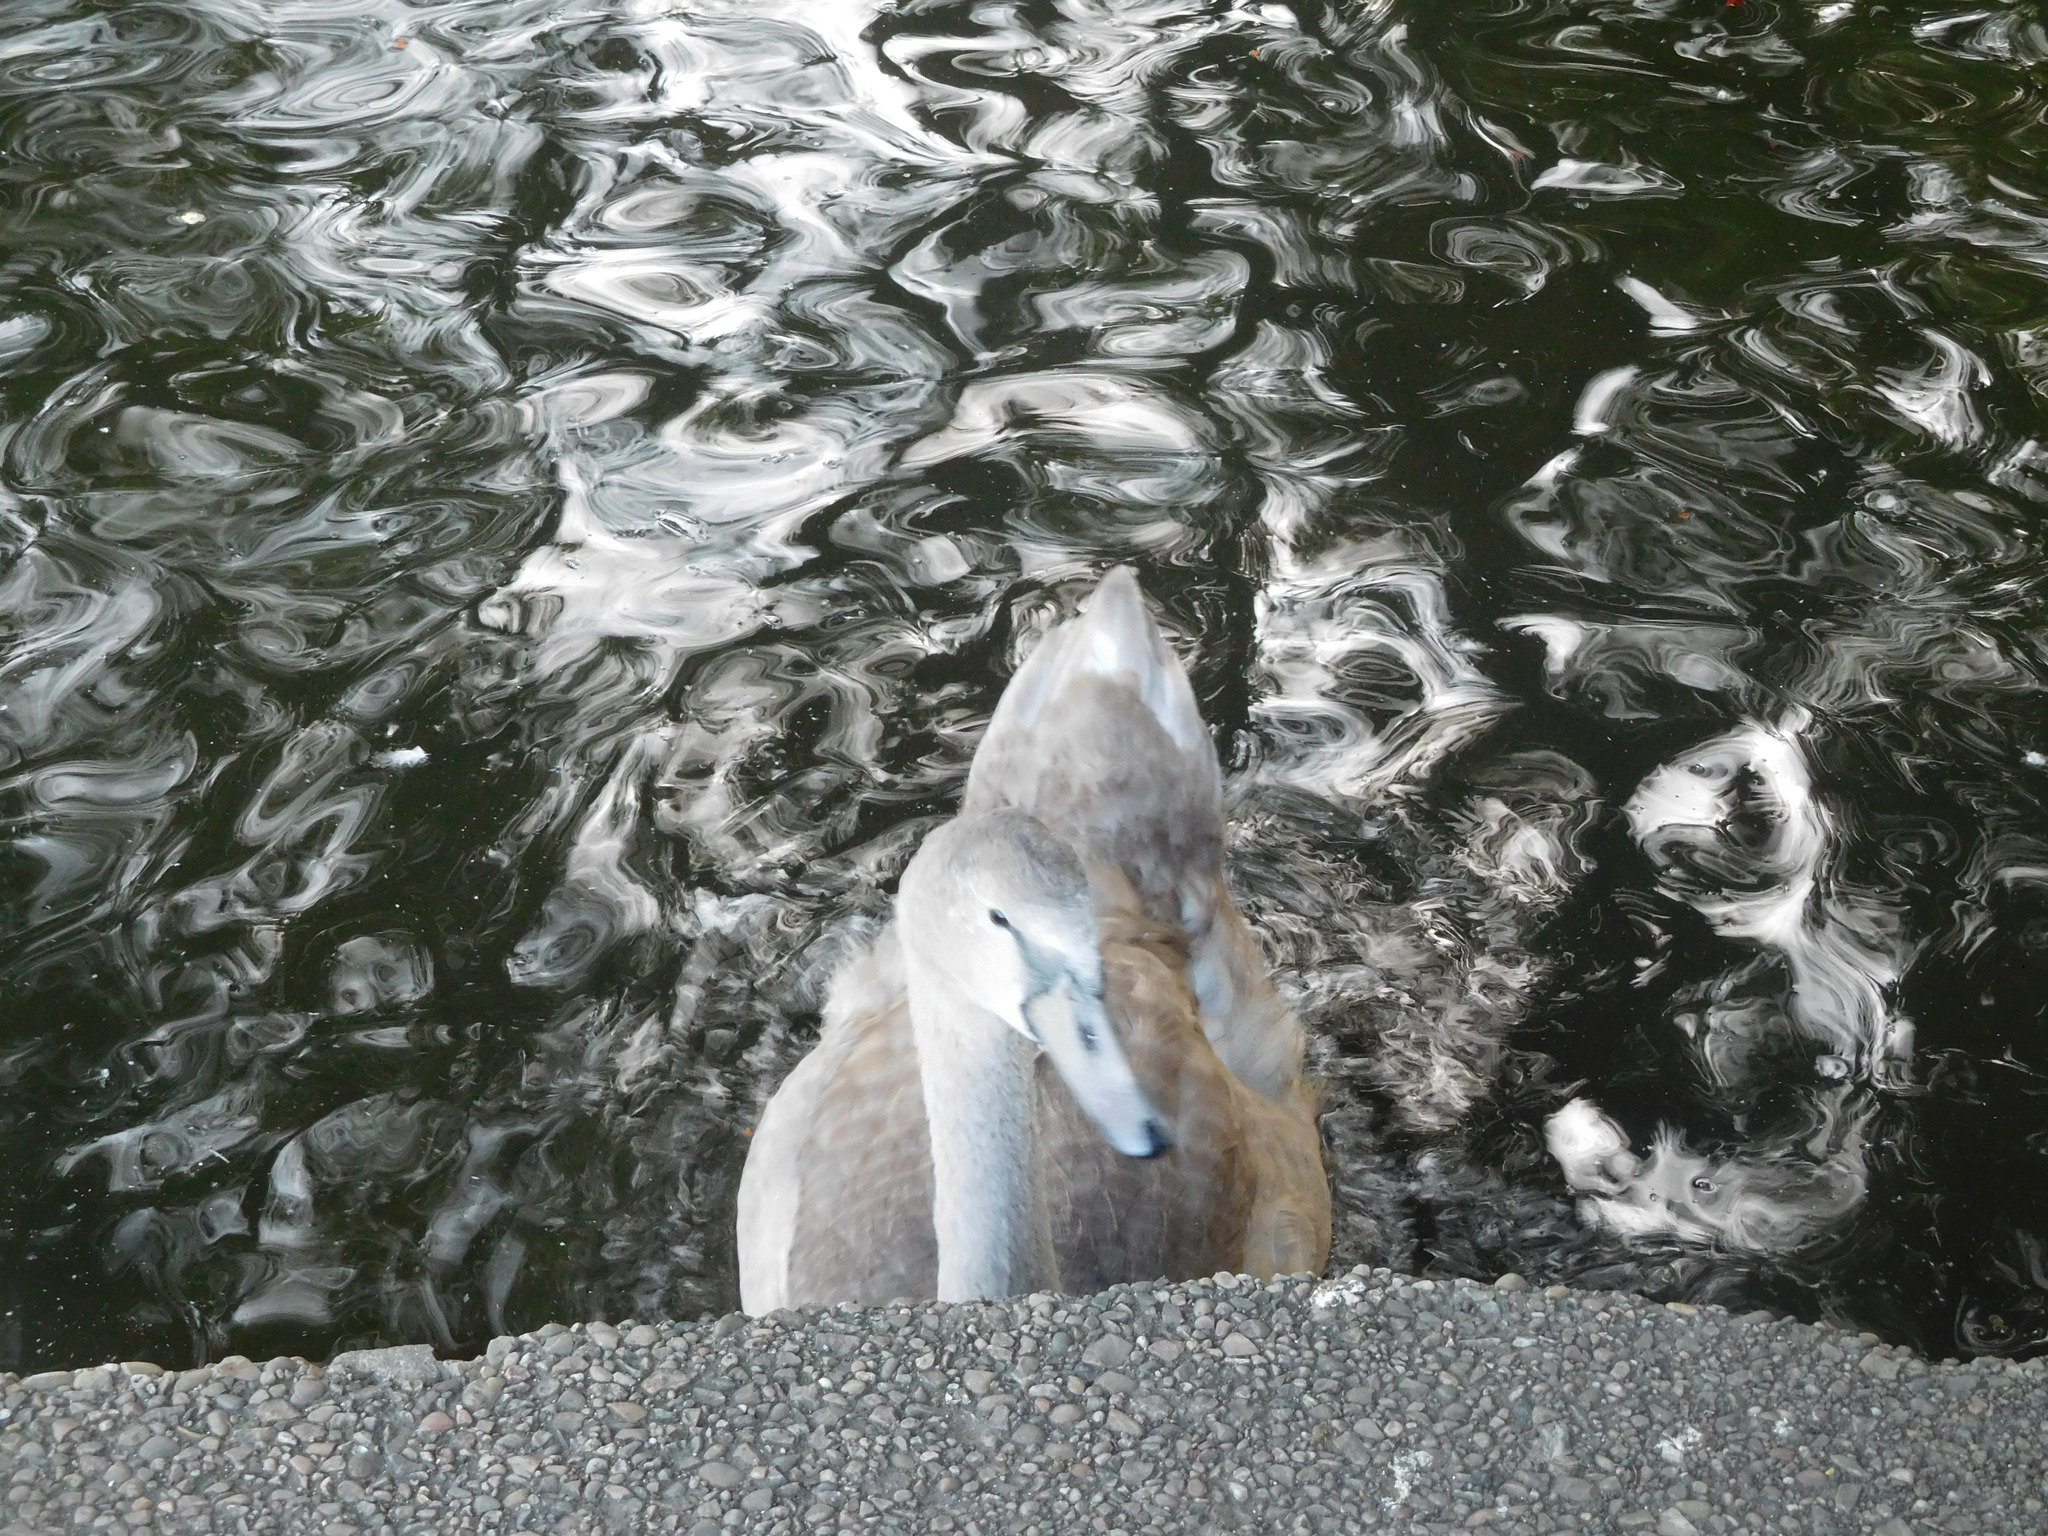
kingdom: Animalia
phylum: Chordata
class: Aves
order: Anseriformes
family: Anatidae
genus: Cygnus
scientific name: Cygnus olor
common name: Mute swan
